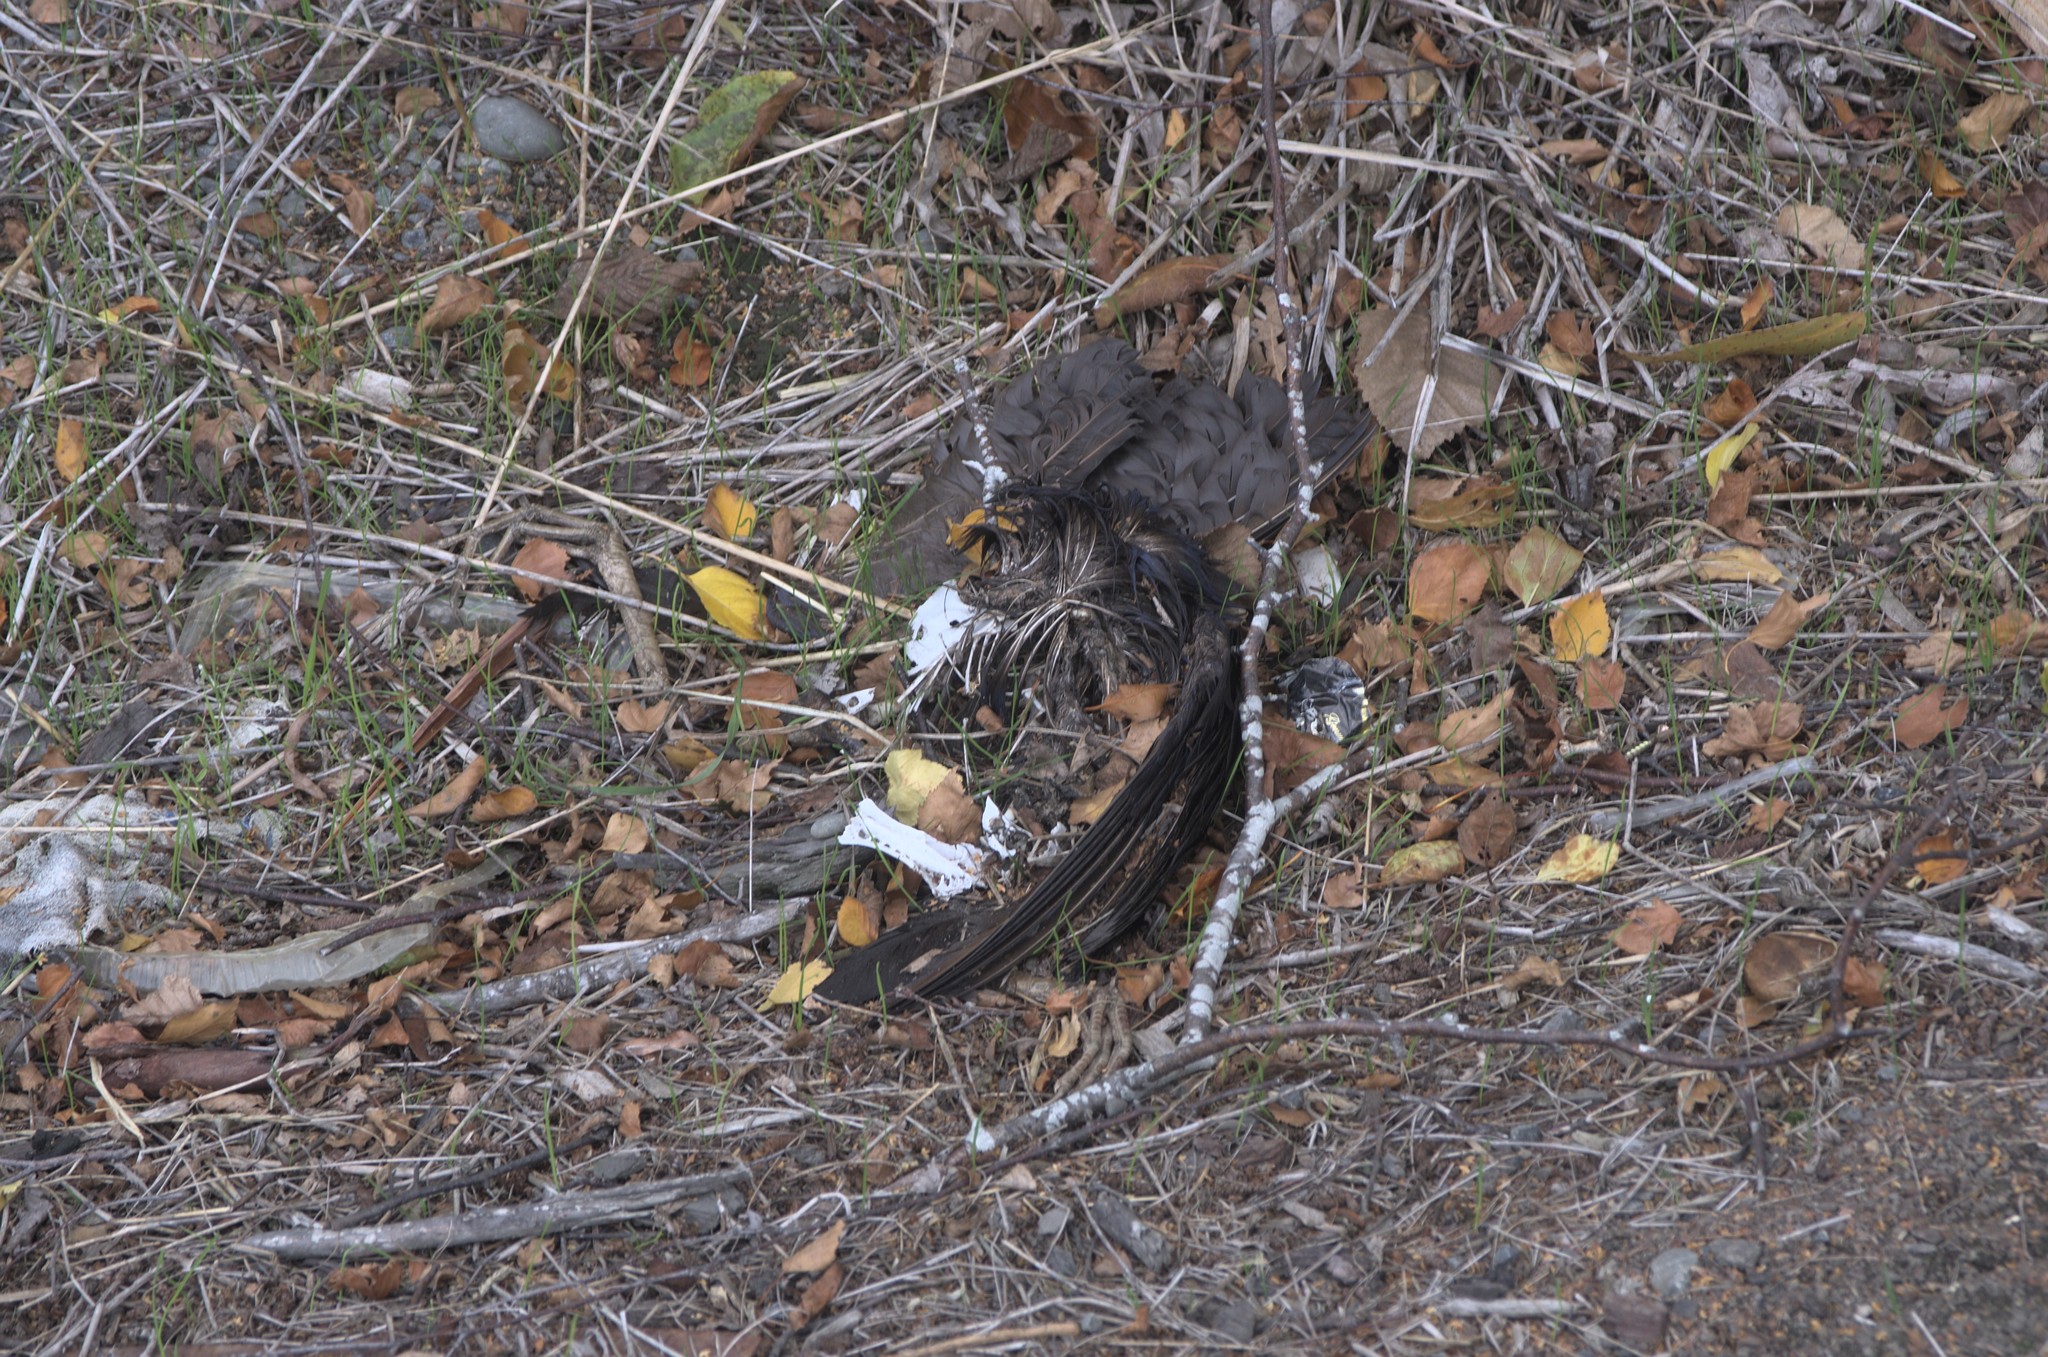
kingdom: Animalia
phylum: Chordata
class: Aves
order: Gruiformes
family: Rallidae
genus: Porphyrio
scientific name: Porphyrio melanotus
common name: Australasian swamphen
